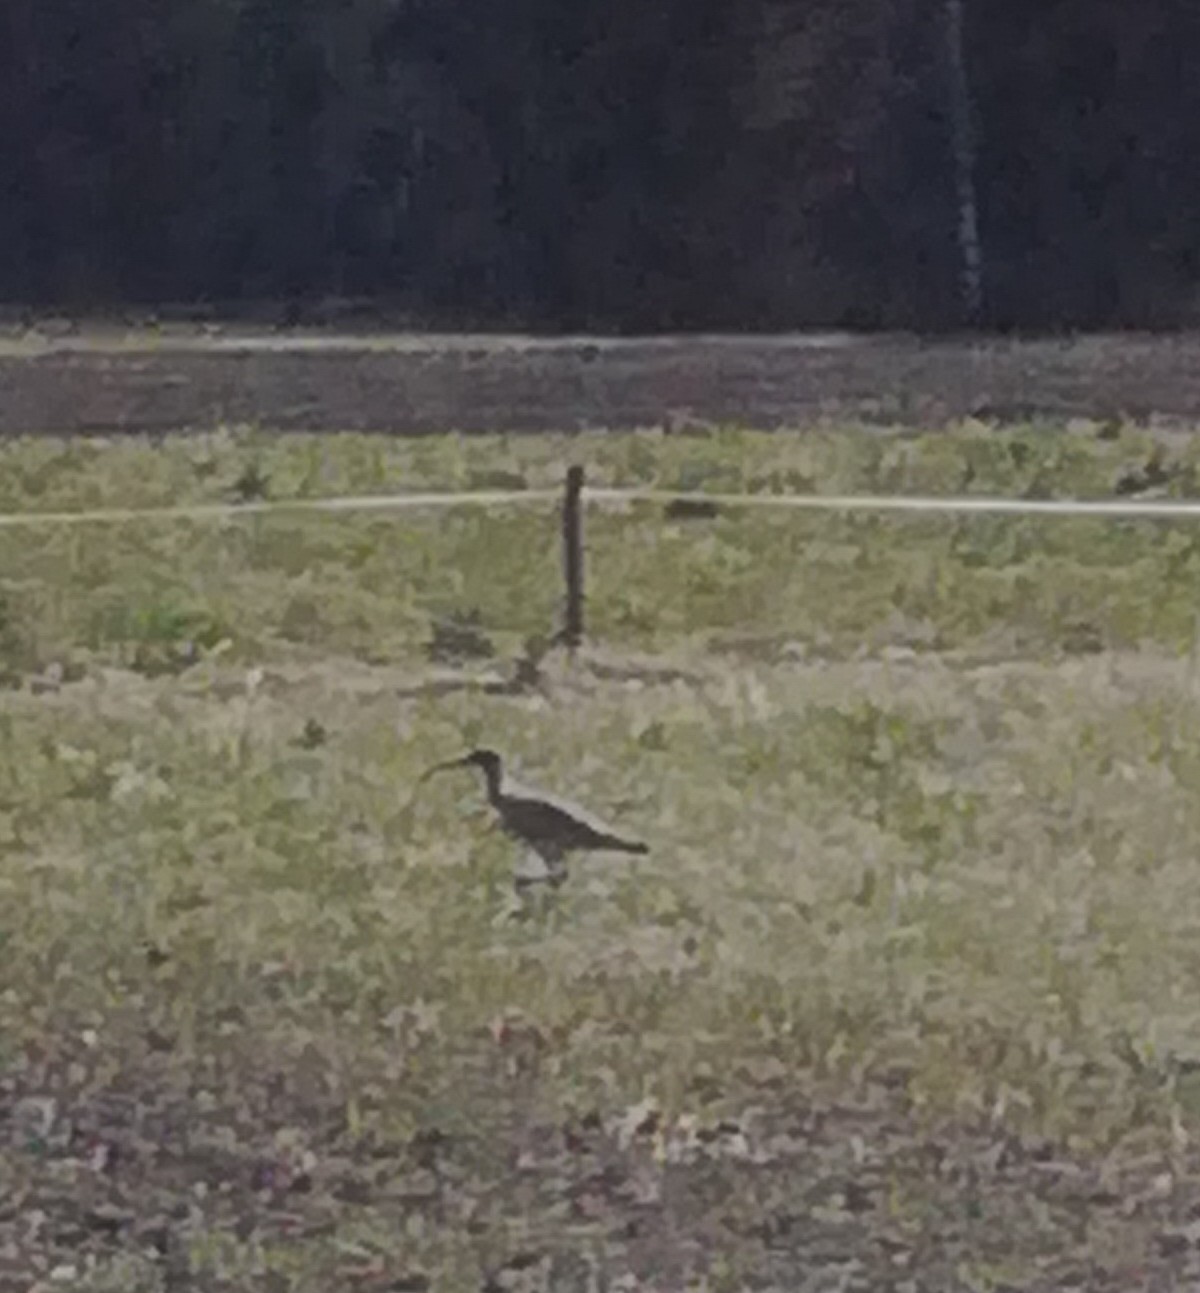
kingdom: Animalia
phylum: Chordata
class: Aves
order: Charadriiformes
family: Scolopacidae
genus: Numenius
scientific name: Numenius arquata
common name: Eurasian curlew
